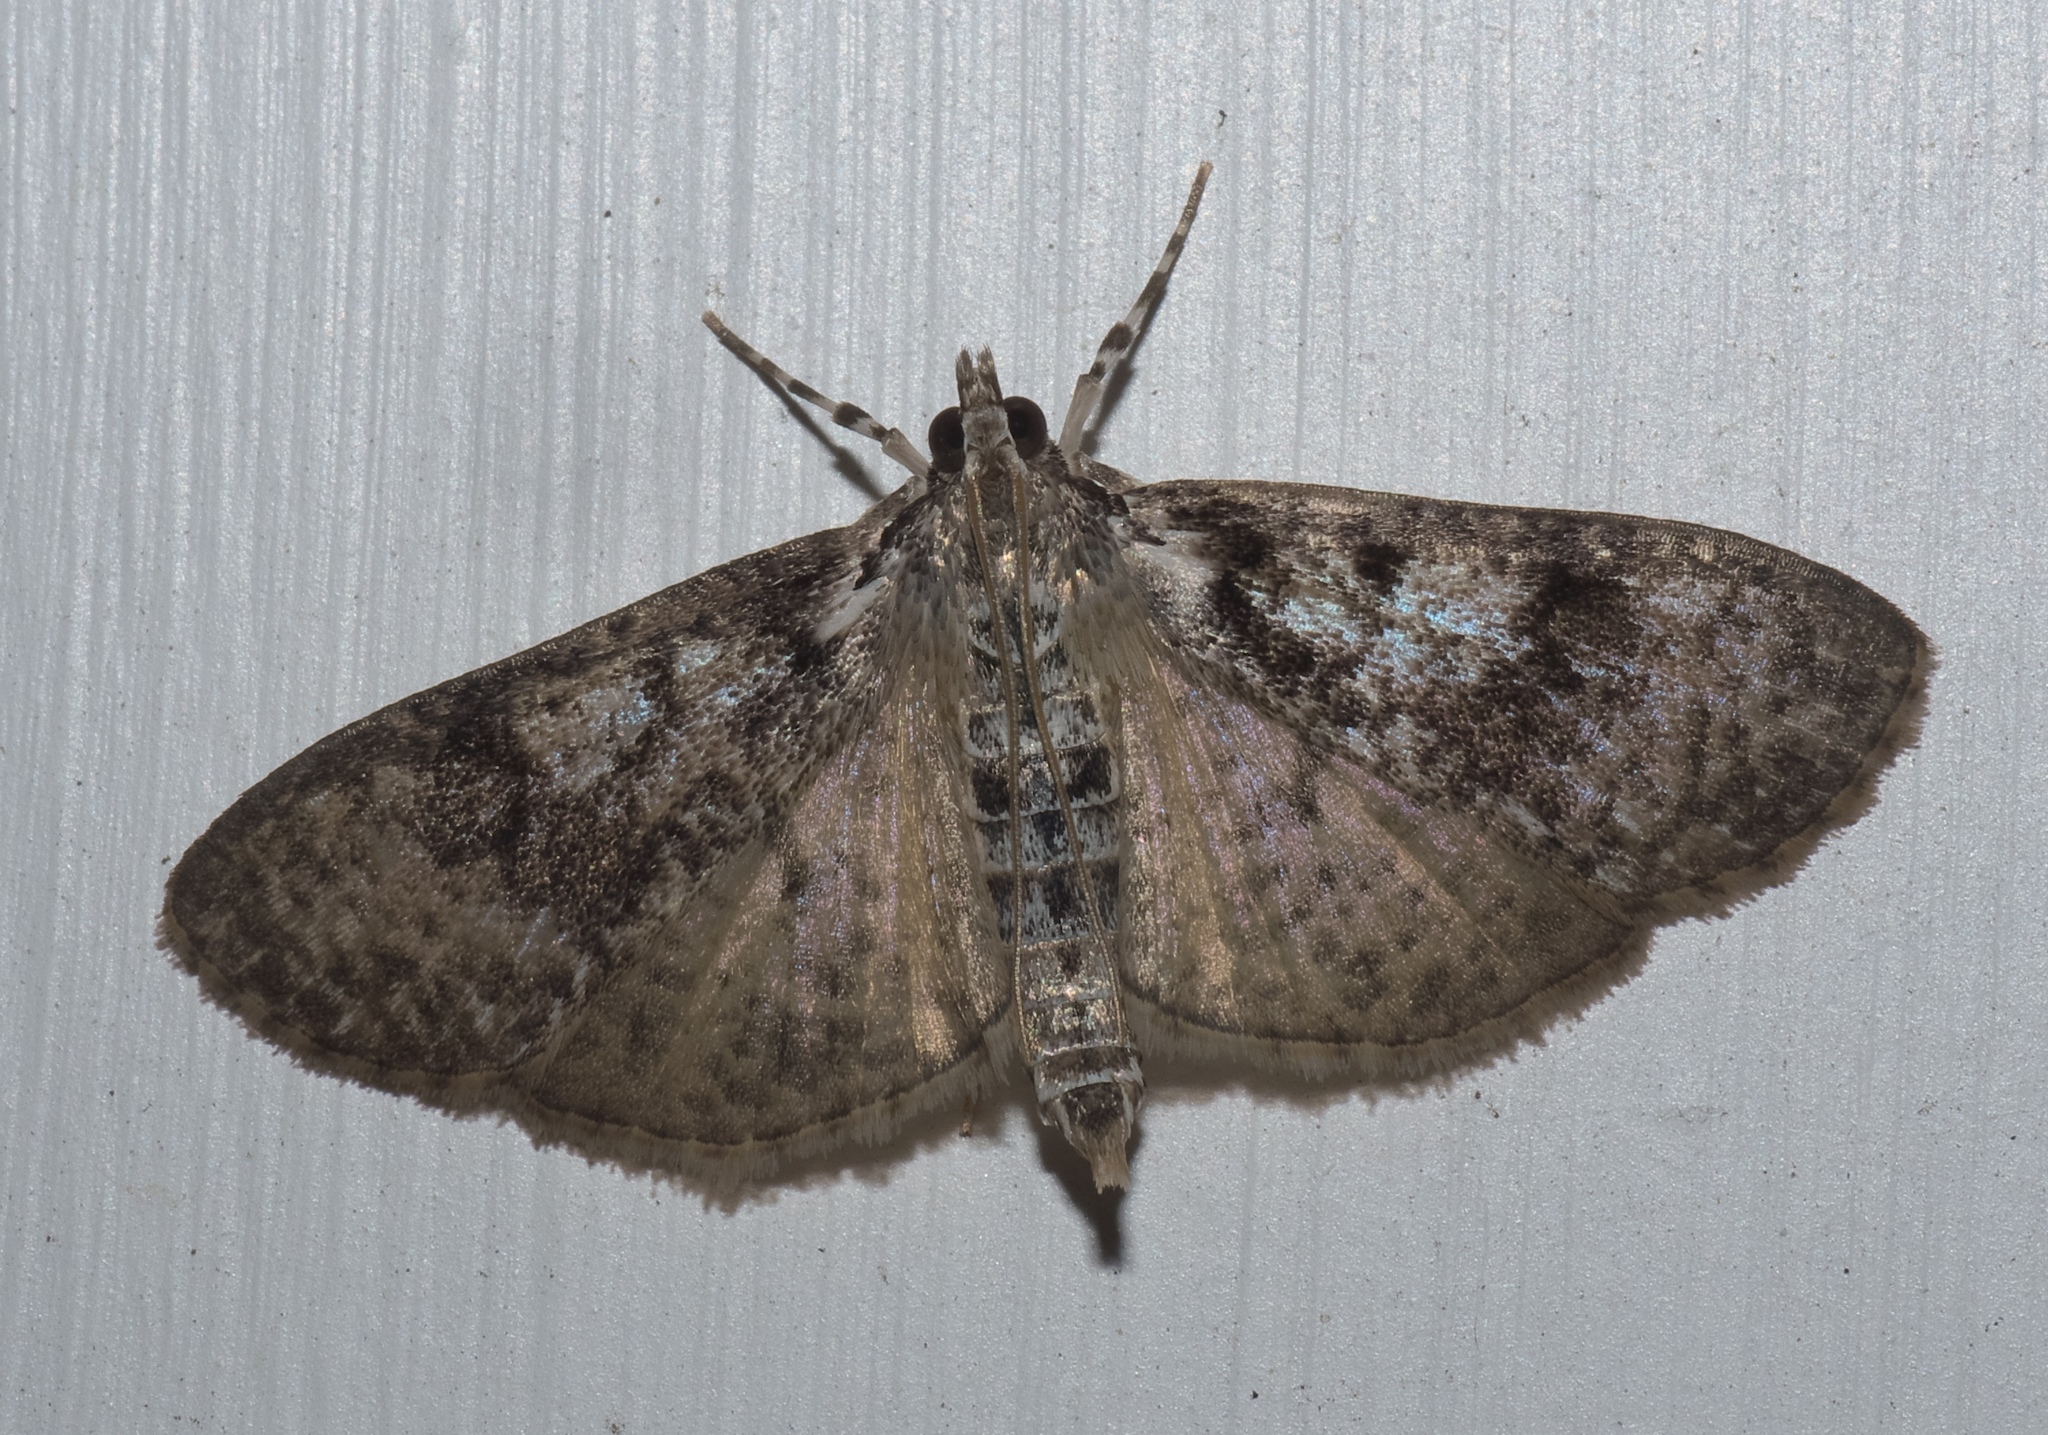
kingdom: Animalia
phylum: Arthropoda
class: Insecta
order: Lepidoptera
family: Crambidae
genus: Palpita
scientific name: Palpita magniferalis
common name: Splendid palpita moth
